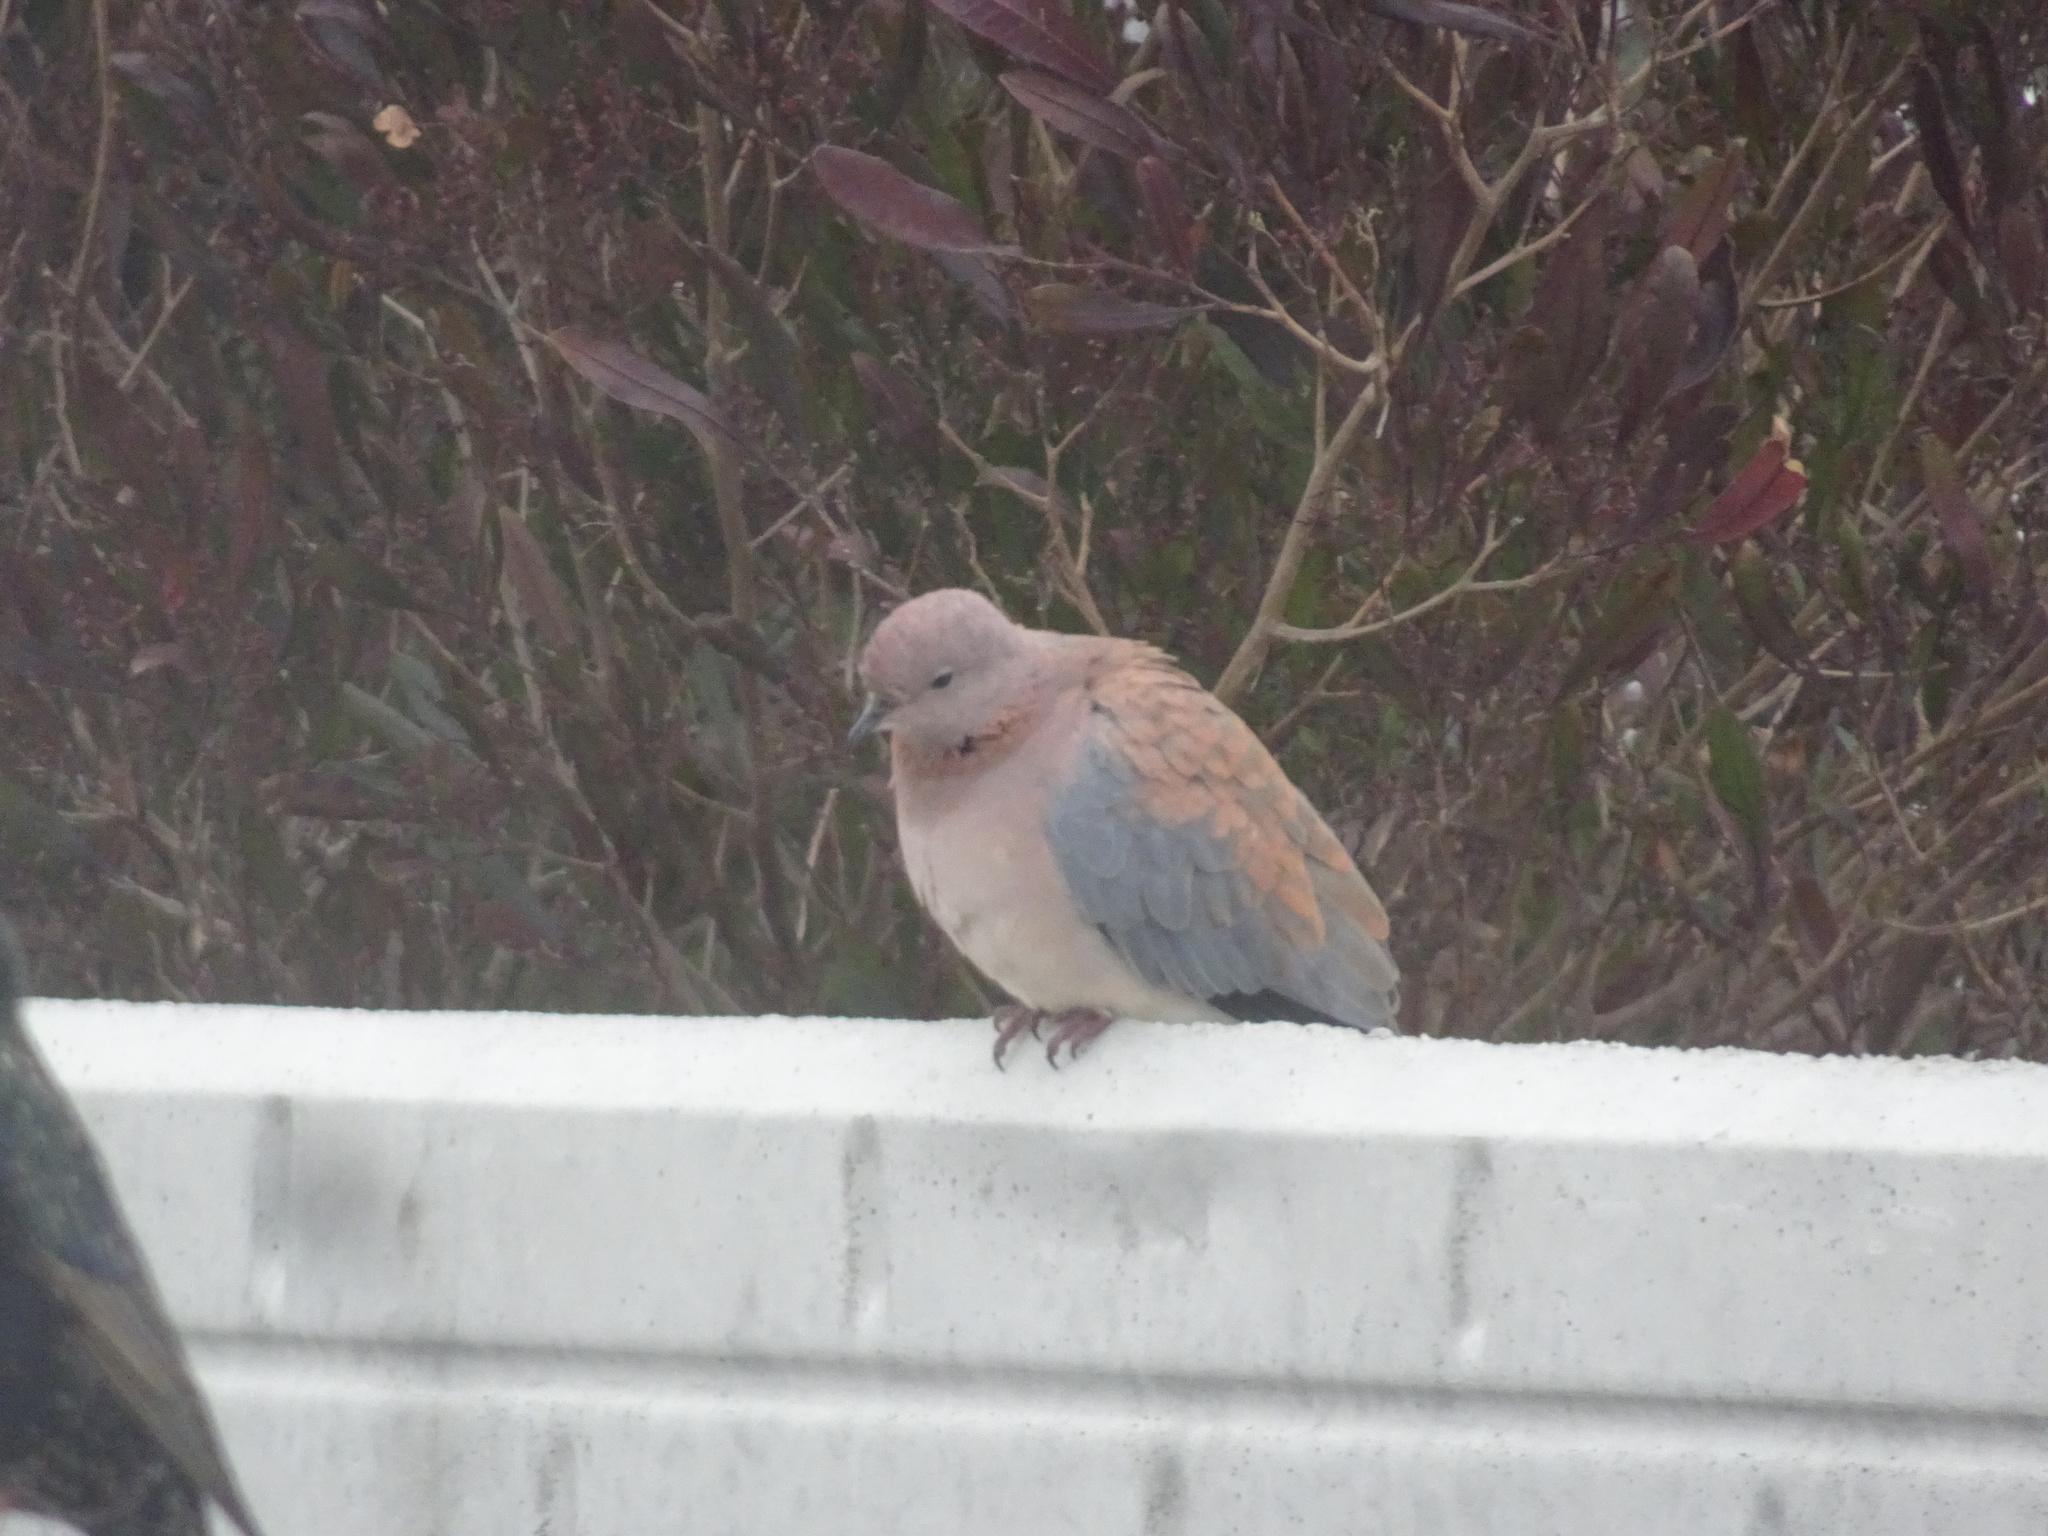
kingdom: Animalia
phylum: Chordata
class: Aves
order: Columbiformes
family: Columbidae
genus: Spilopelia
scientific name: Spilopelia senegalensis
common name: Laughing dove
